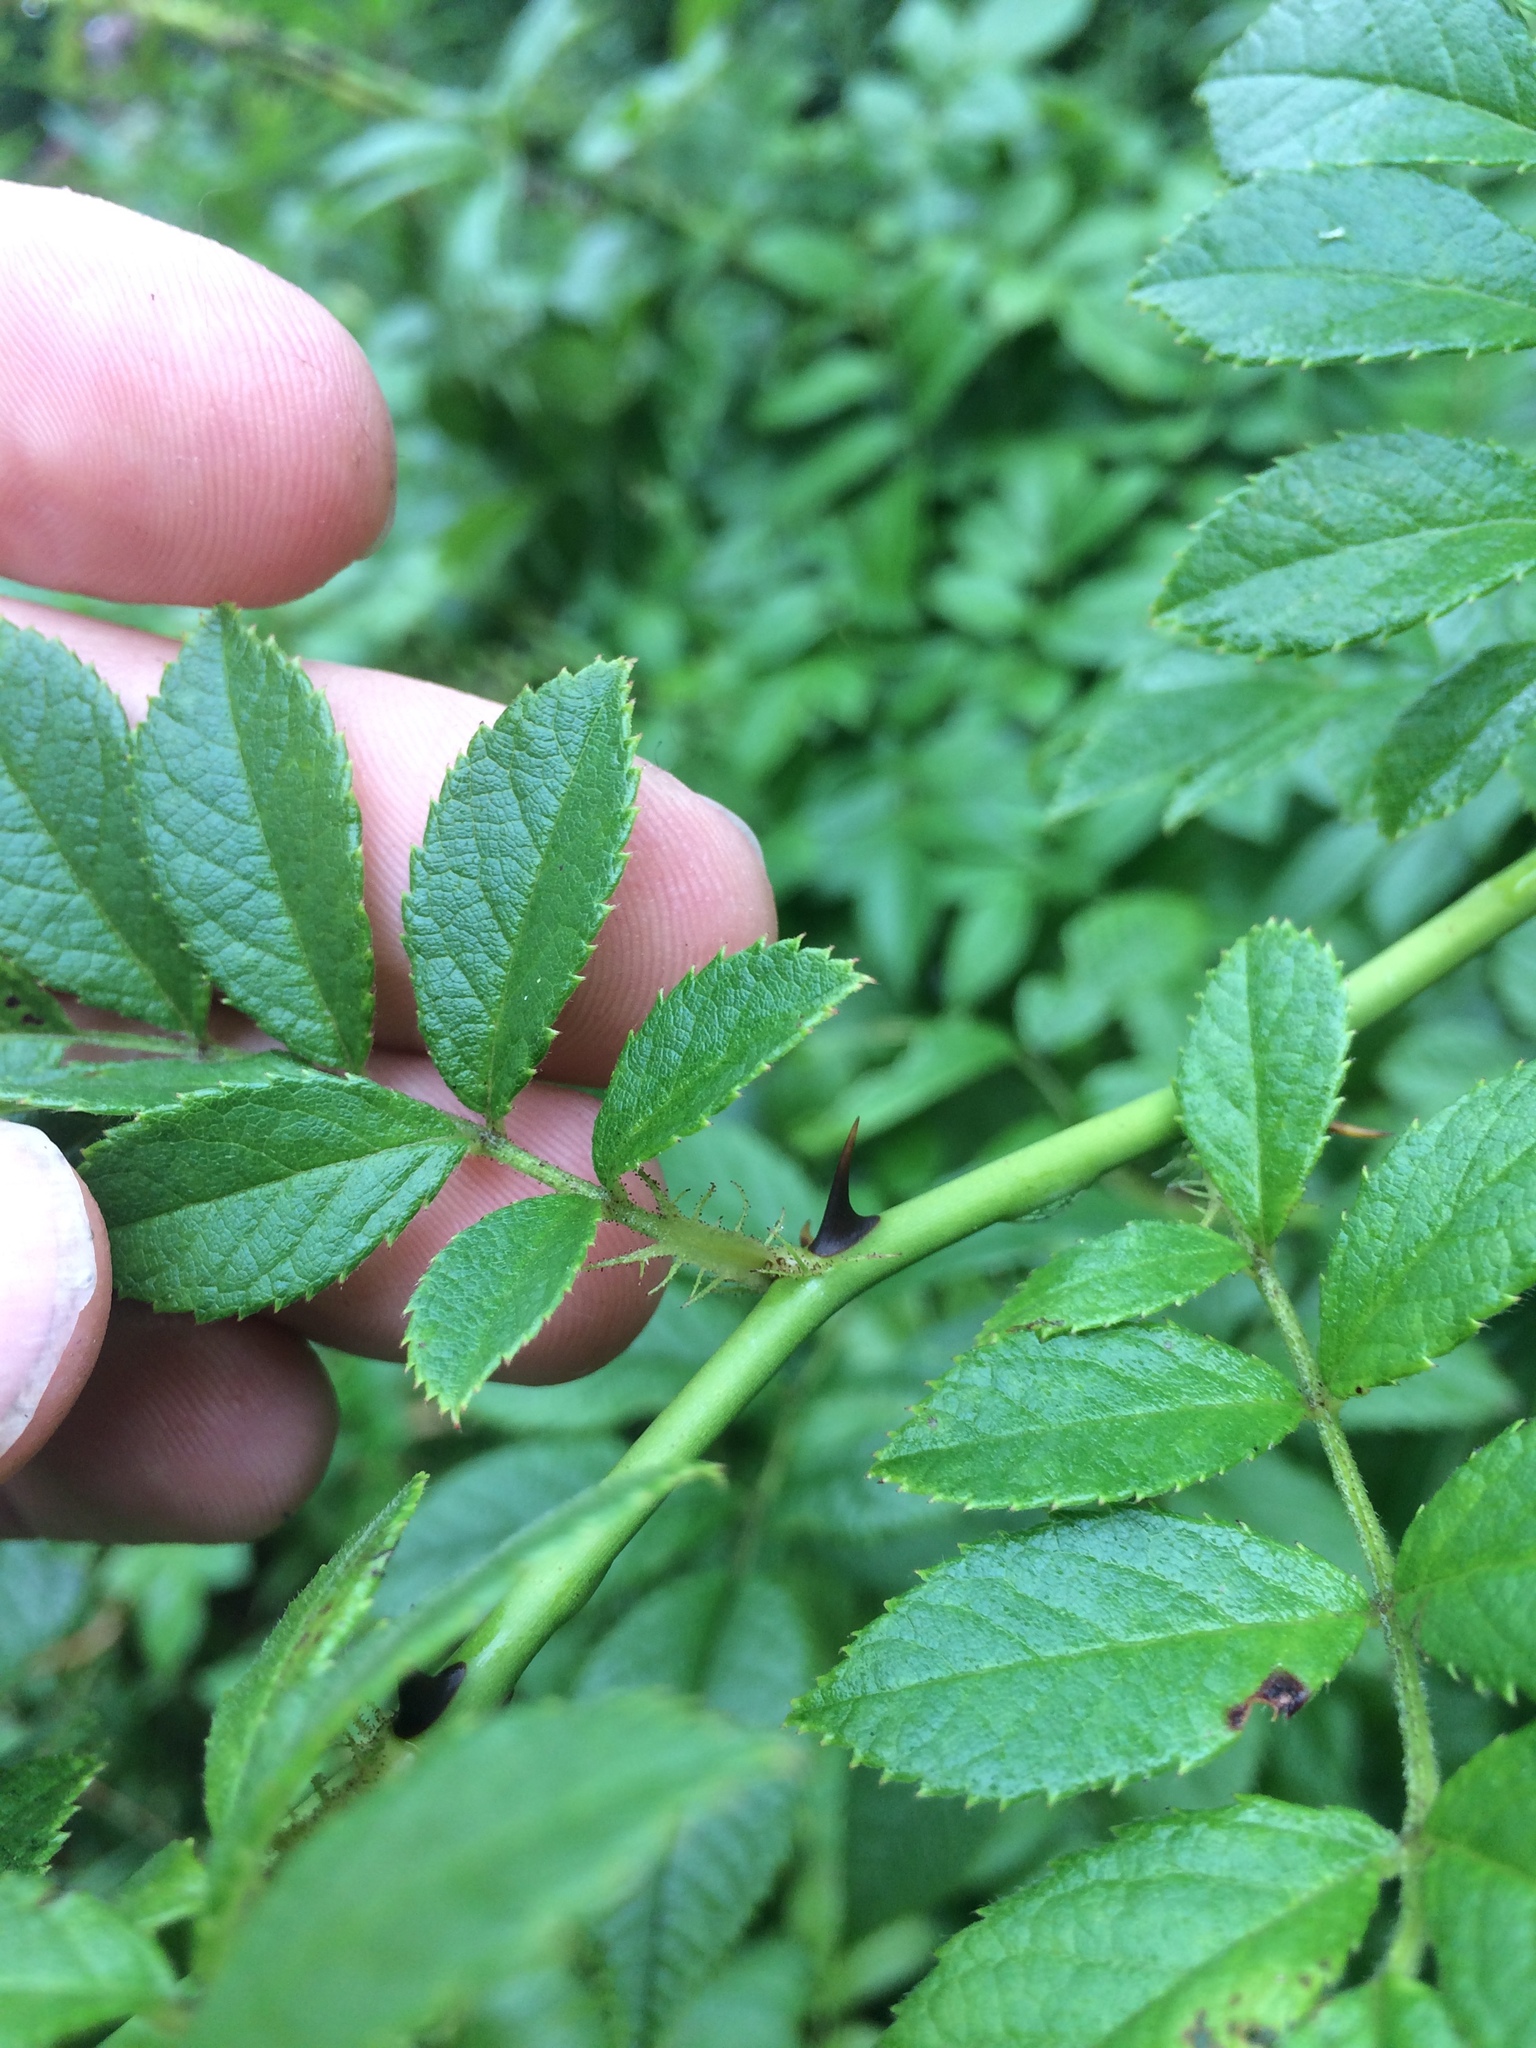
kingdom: Plantae
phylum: Tracheophyta
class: Magnoliopsida
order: Rosales
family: Rosaceae
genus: Rosa
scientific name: Rosa multiflora
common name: Multiflora rose
